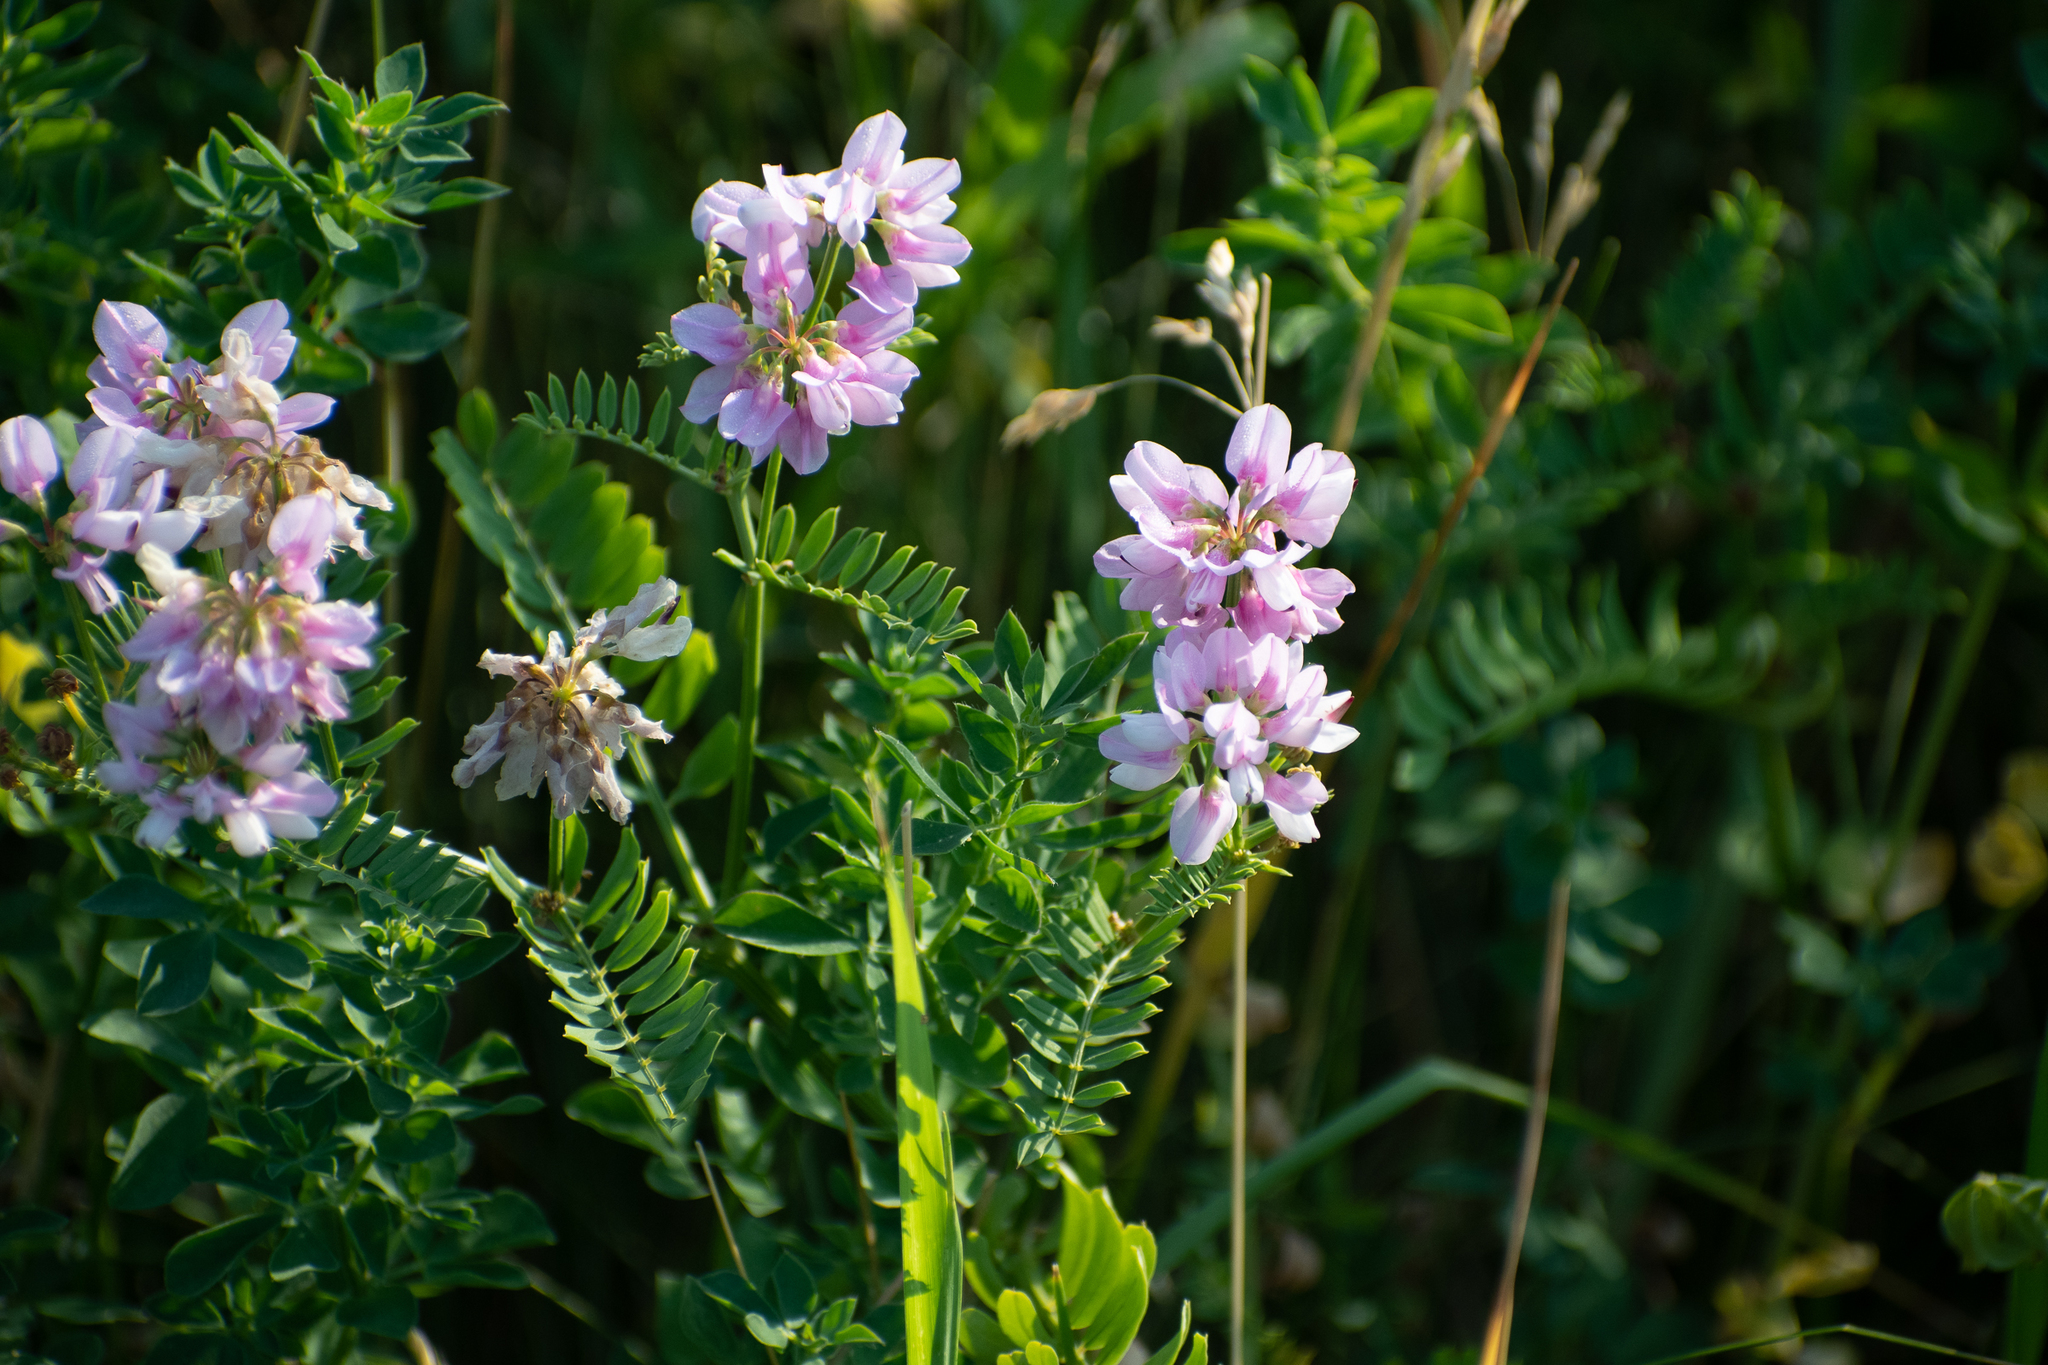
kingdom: Plantae
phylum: Tracheophyta
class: Magnoliopsida
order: Fabales
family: Fabaceae
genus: Coronilla
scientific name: Coronilla varia
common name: Crownvetch
